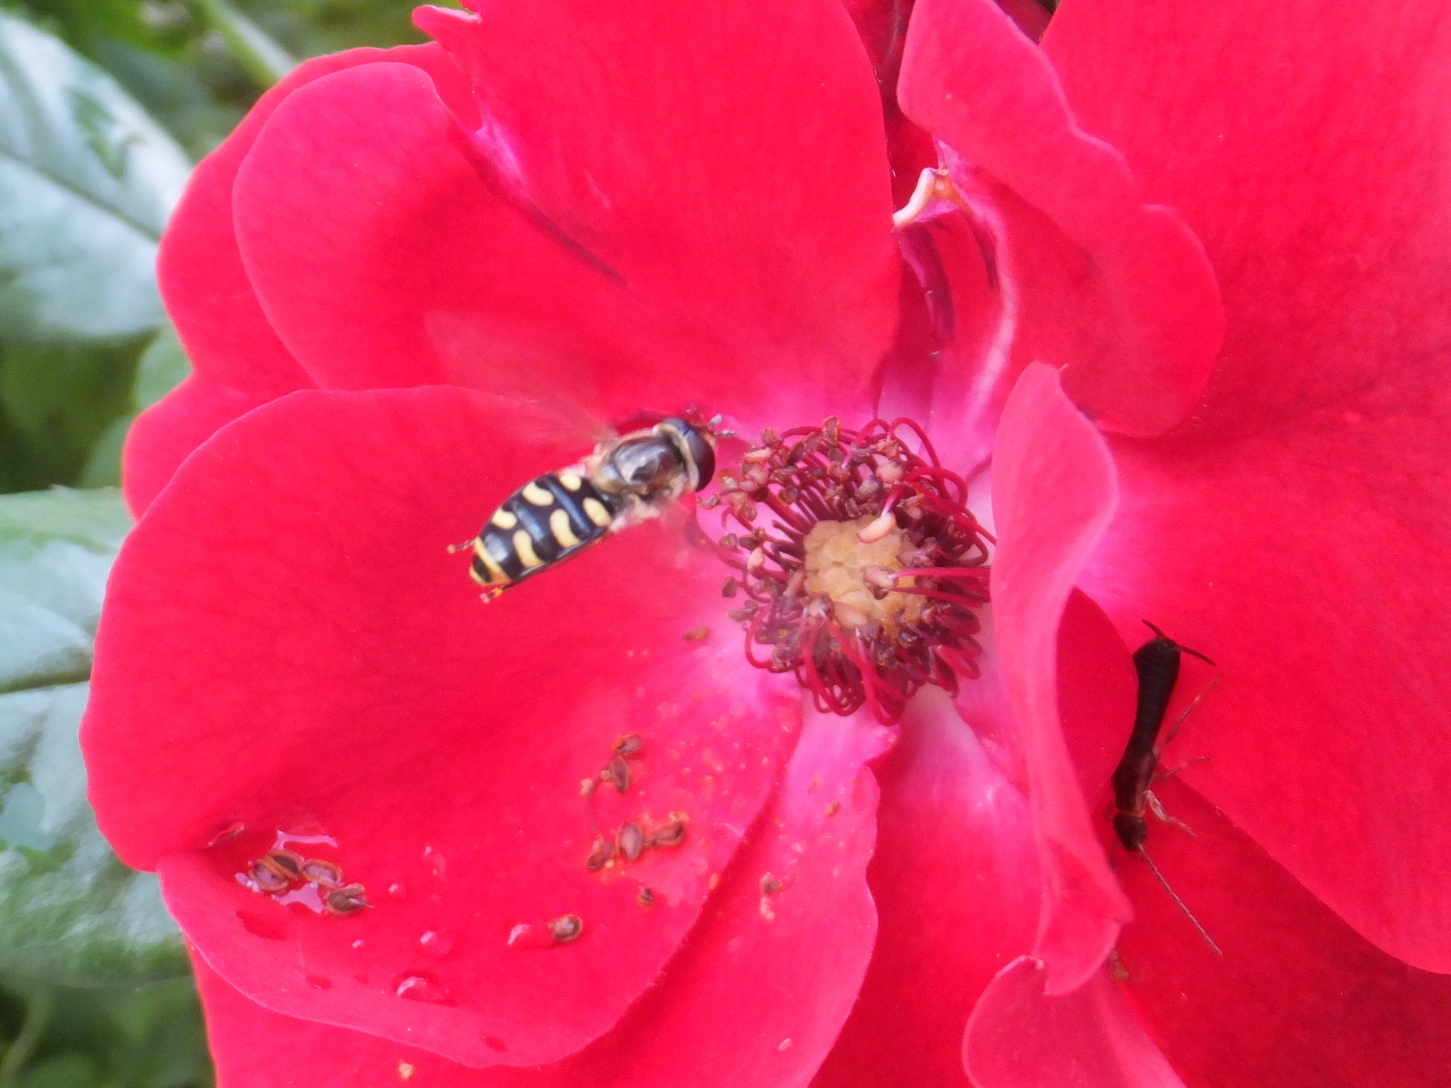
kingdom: Animalia
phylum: Arthropoda
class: Insecta
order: Diptera
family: Syrphidae
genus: Eupeodes
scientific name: Eupeodes luniger
